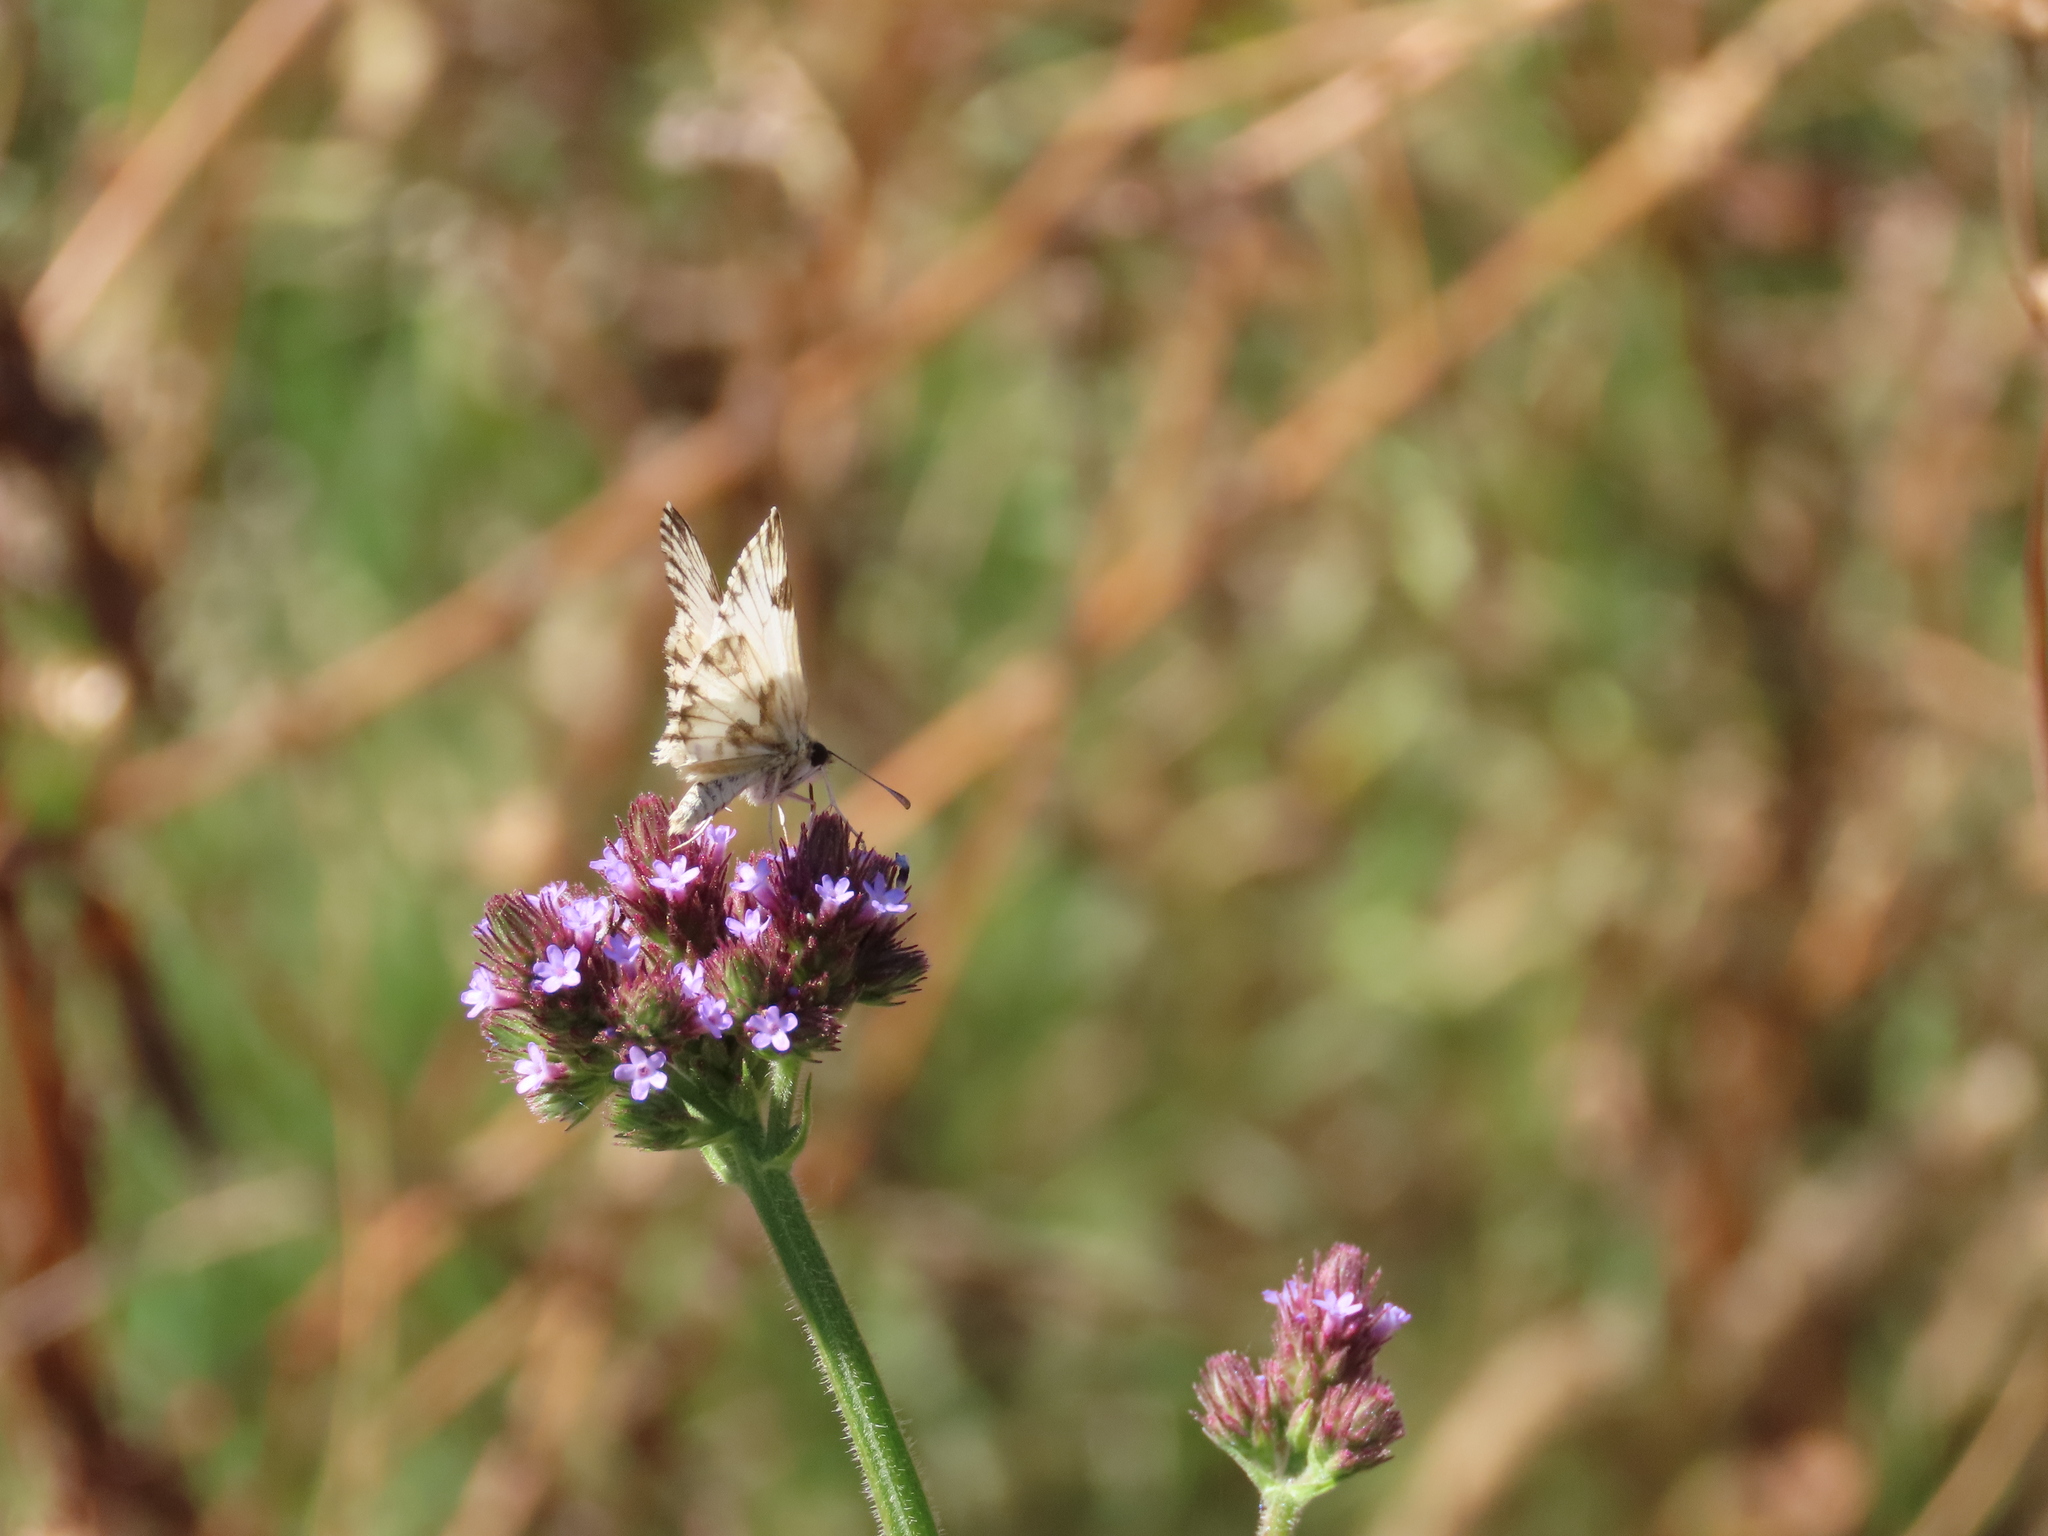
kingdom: Animalia
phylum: Arthropoda
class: Insecta
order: Lepidoptera
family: Hesperiidae
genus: Heliopetes
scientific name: Heliopetes omrina
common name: Stained white-skipper
